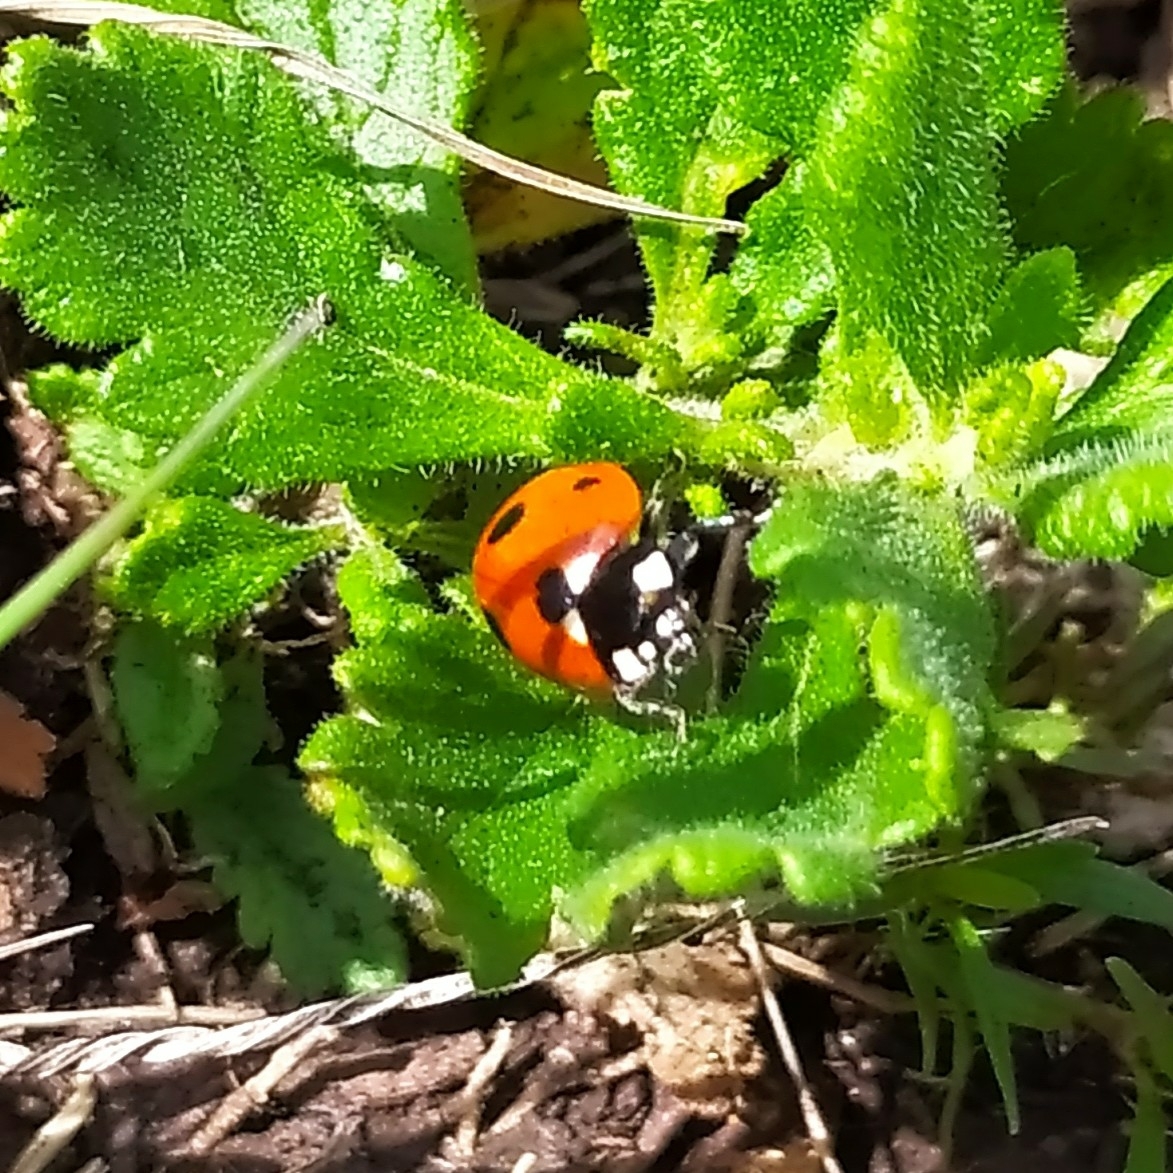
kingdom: Animalia
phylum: Arthropoda
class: Insecta
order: Coleoptera
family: Coccinellidae
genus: Coccinella
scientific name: Coccinella septempunctata
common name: Sevenspotted lady beetle
